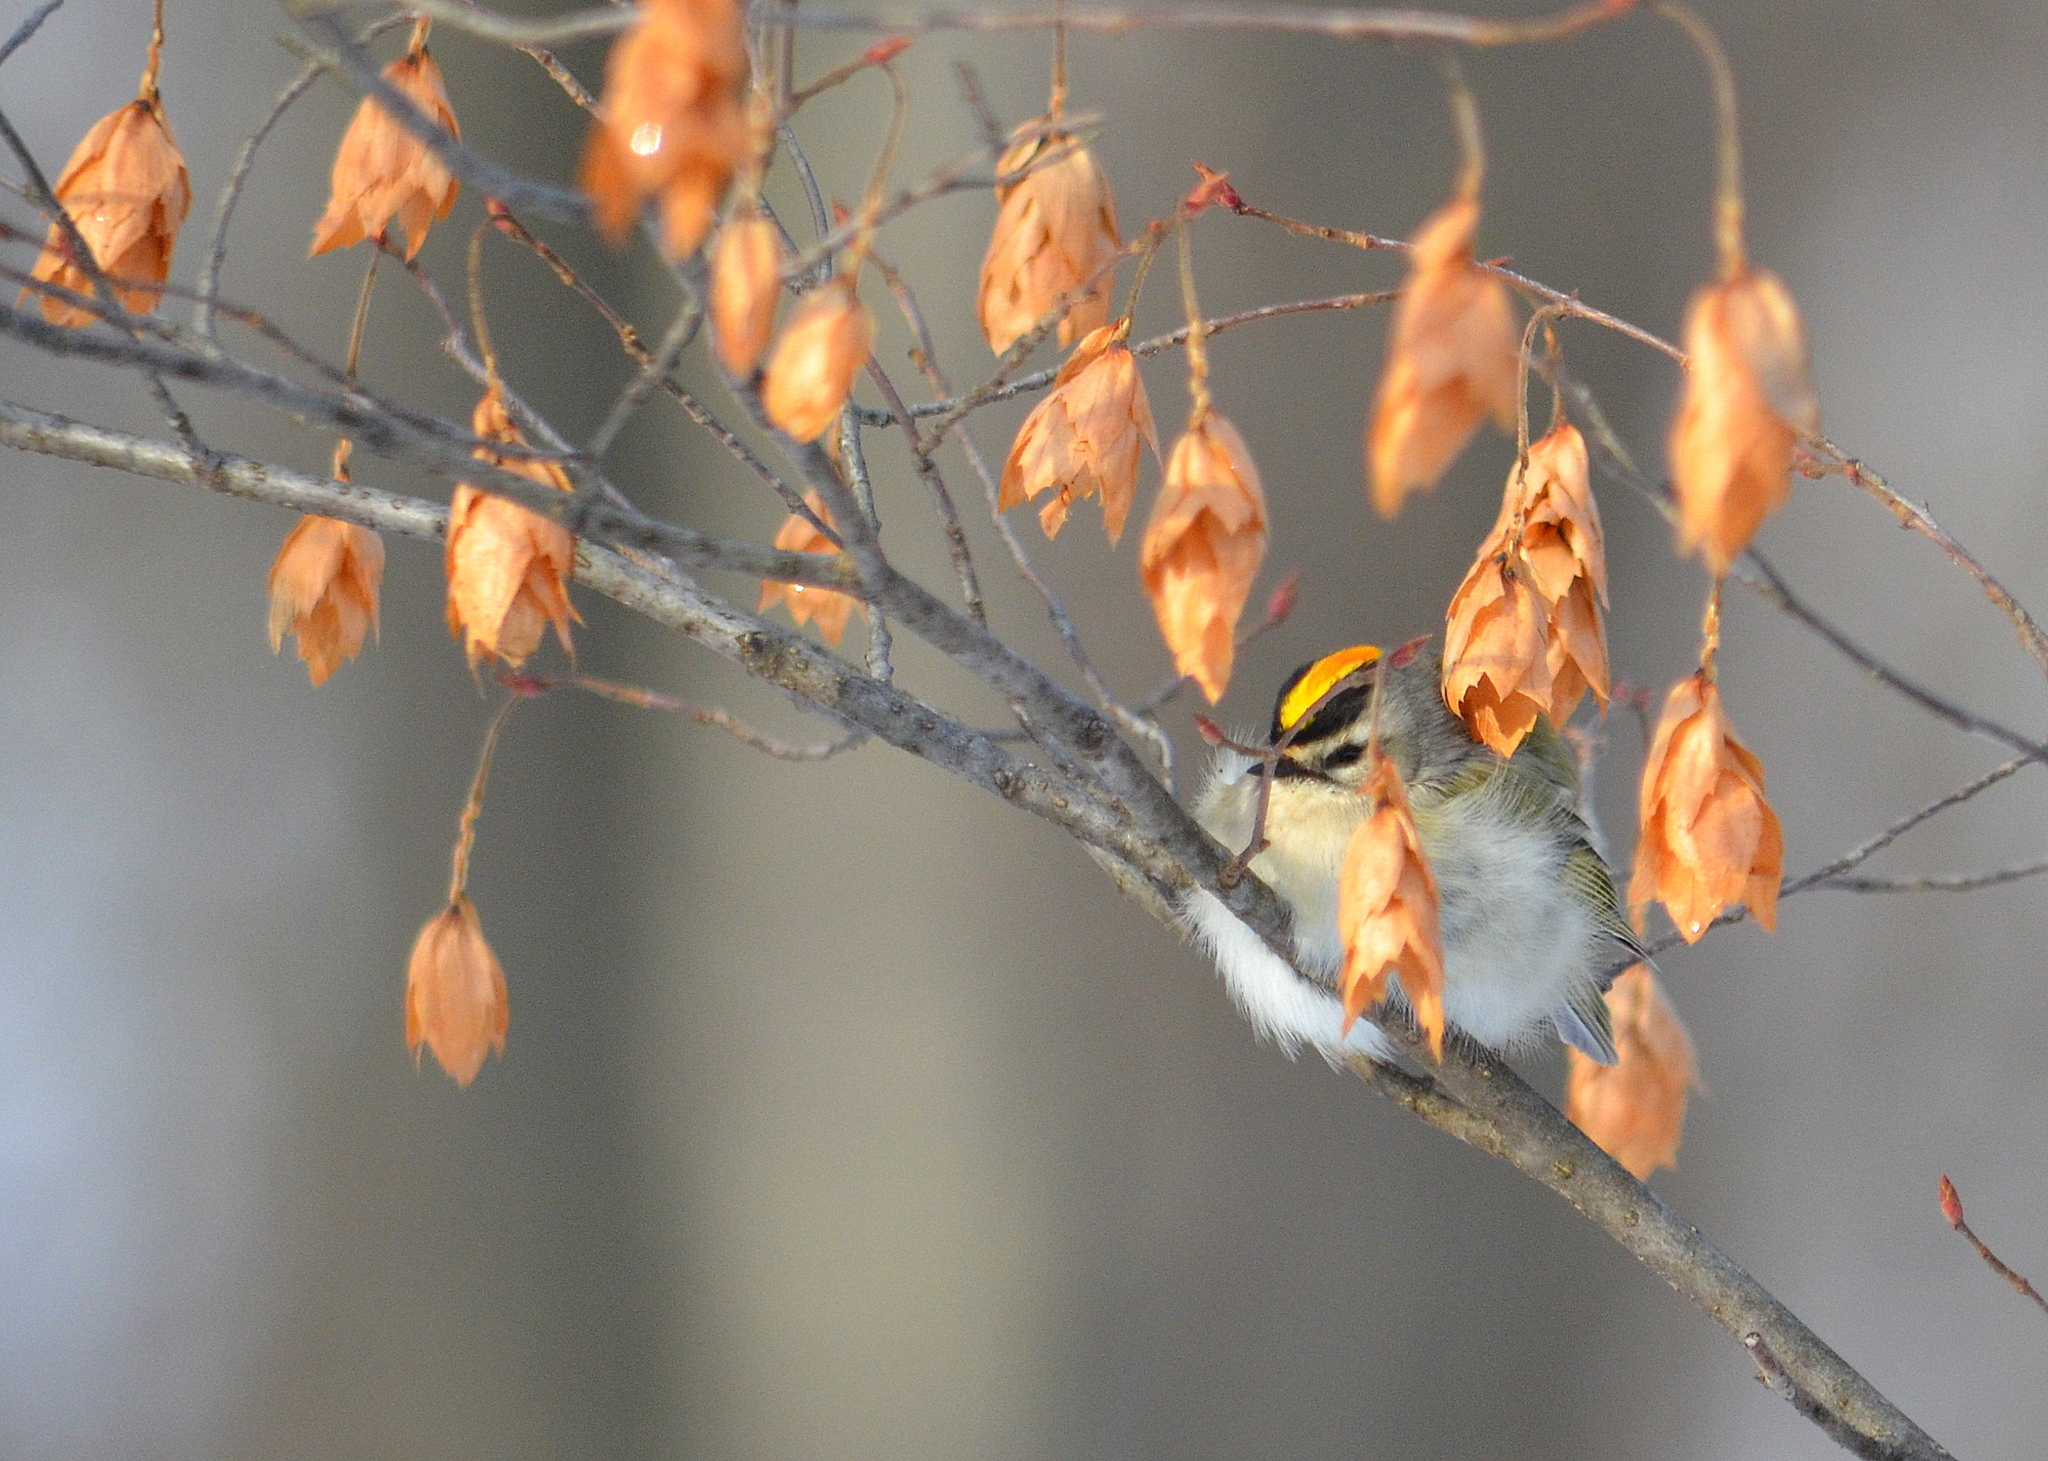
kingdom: Animalia
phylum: Chordata
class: Aves
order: Passeriformes
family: Regulidae
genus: Regulus
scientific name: Regulus satrapa
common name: Golden-crowned kinglet
